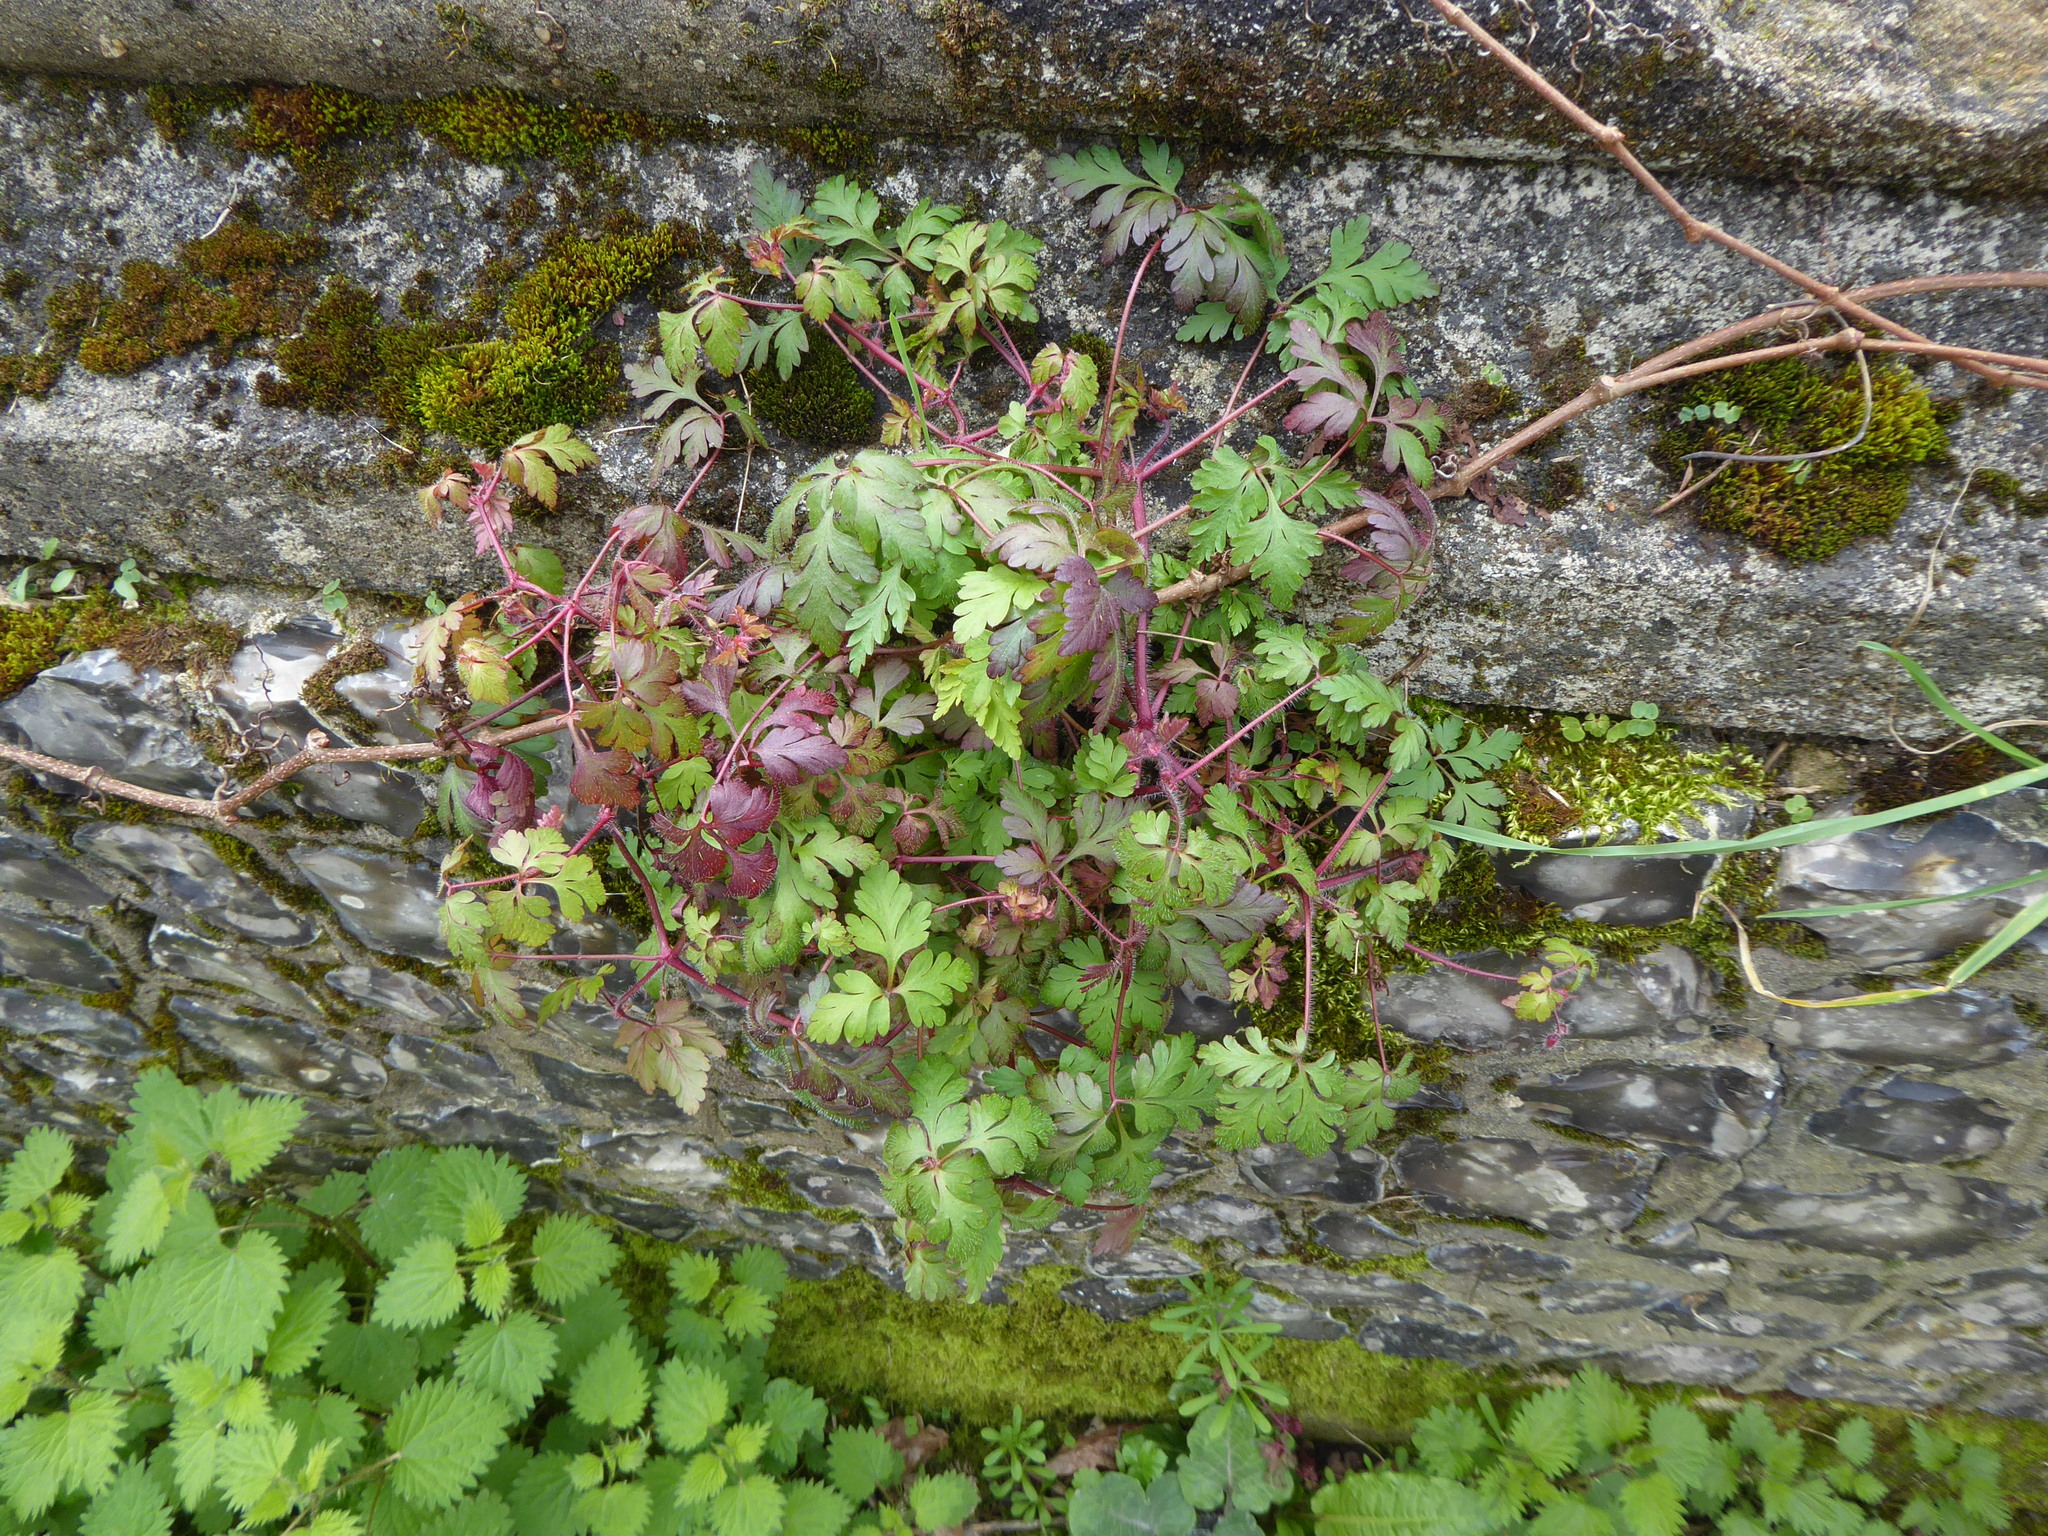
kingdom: Plantae
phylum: Tracheophyta
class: Magnoliopsida
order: Geraniales
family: Geraniaceae
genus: Geranium
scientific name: Geranium robertianum
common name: Herb-robert
